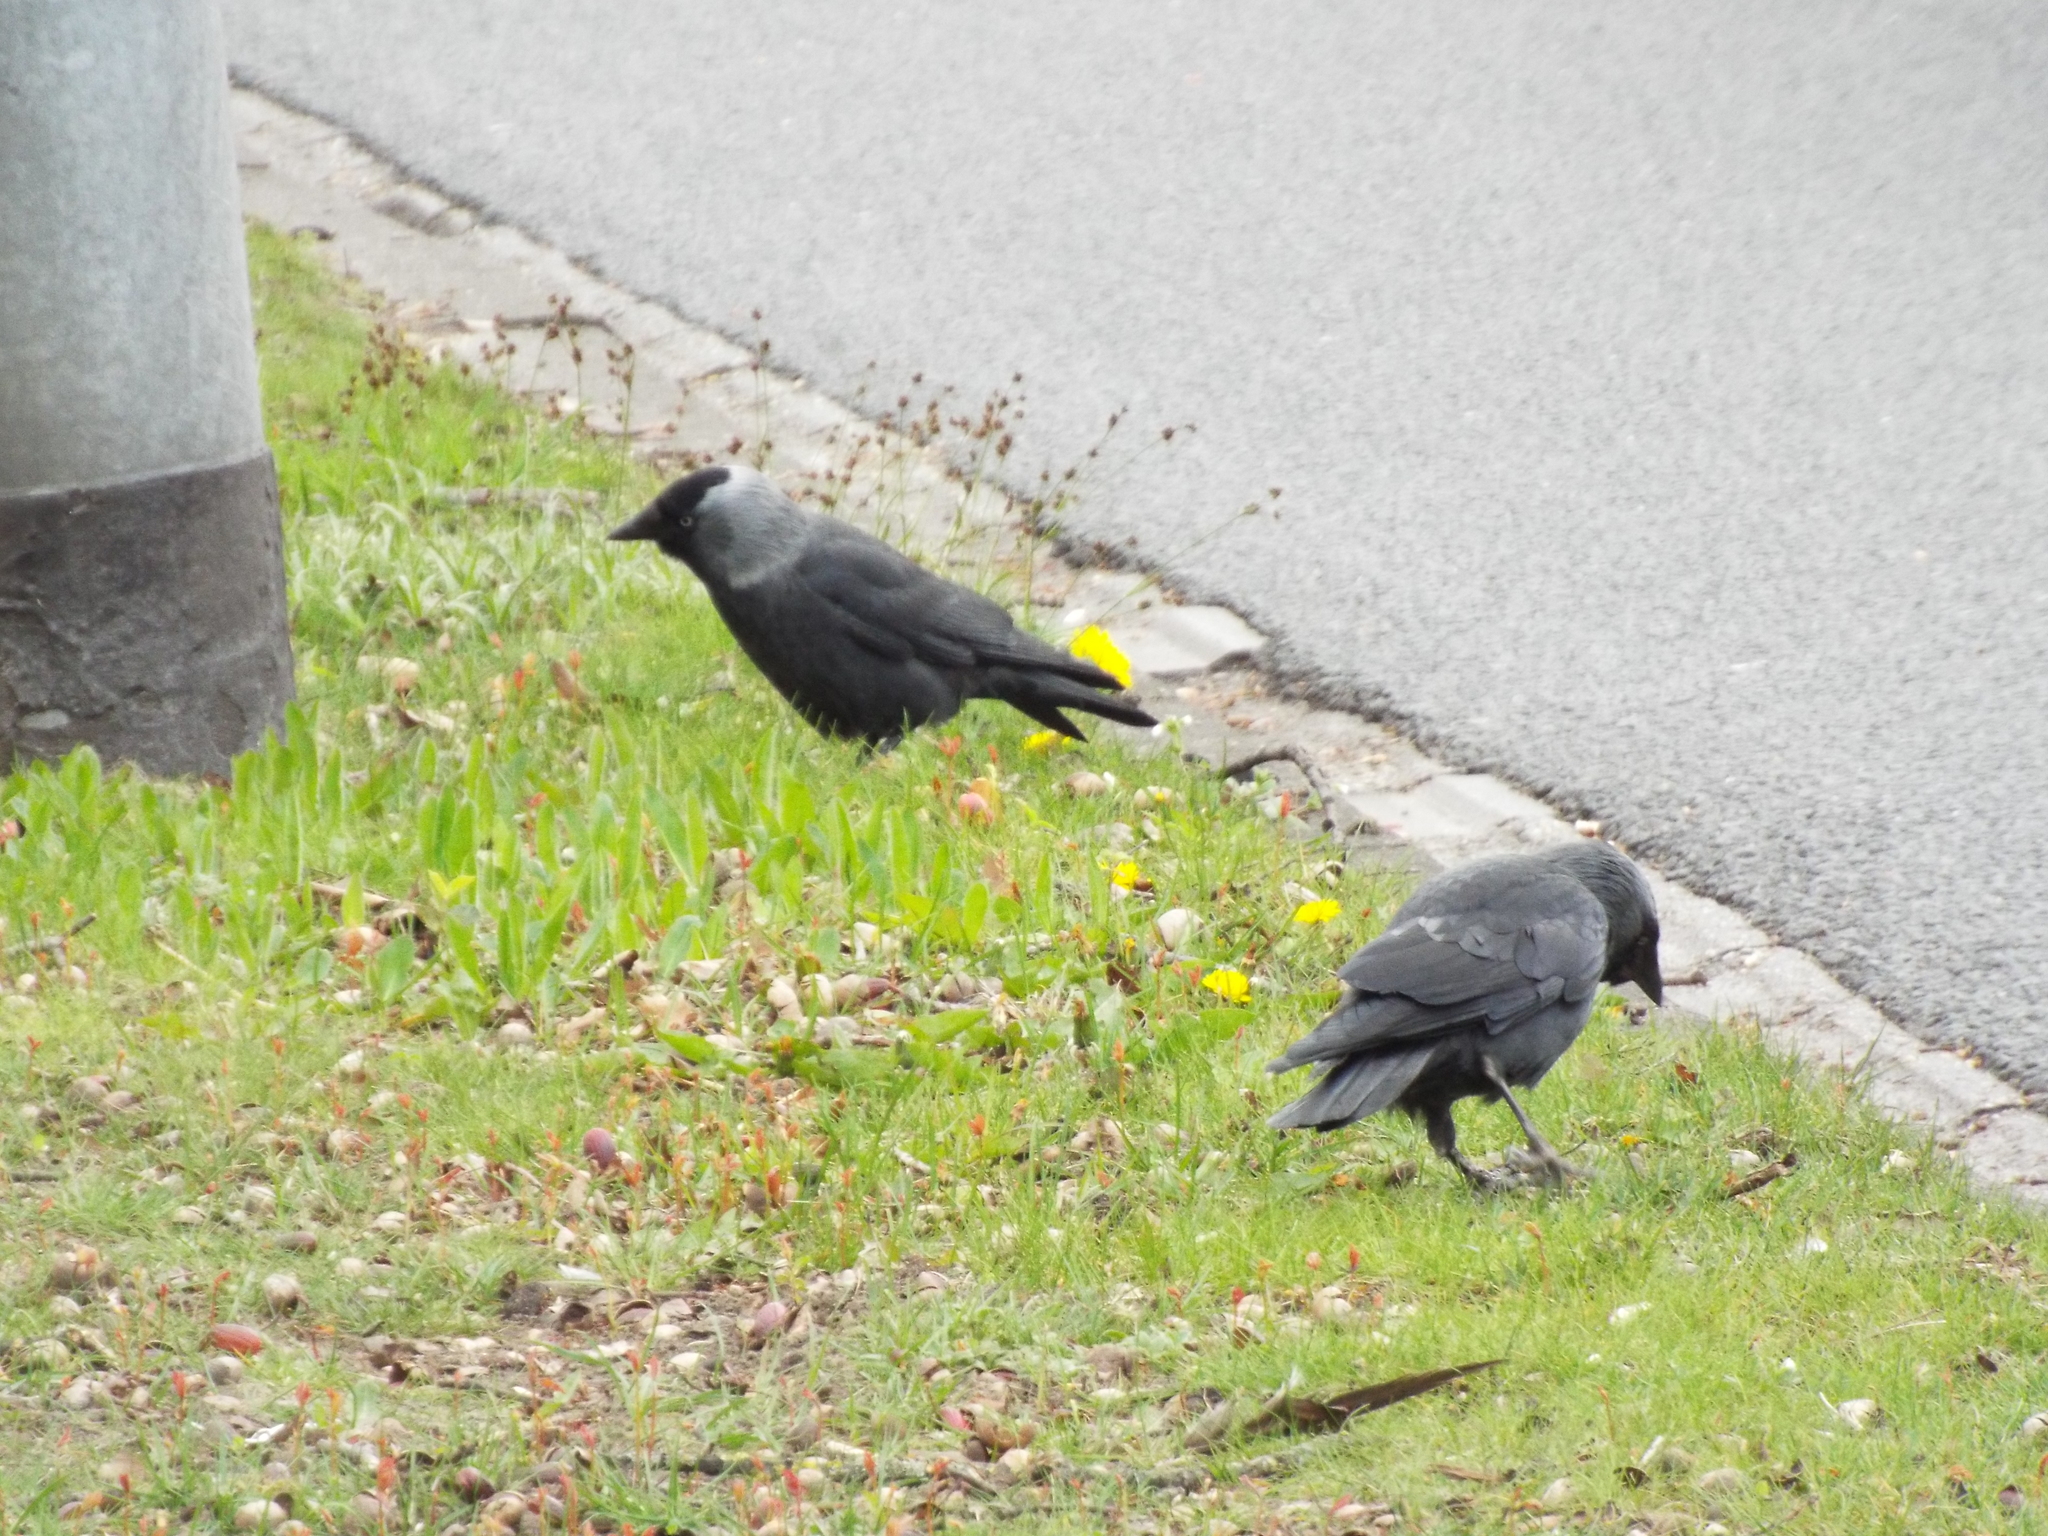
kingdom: Animalia
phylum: Chordata
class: Aves
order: Passeriformes
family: Corvidae
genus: Coloeus
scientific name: Coloeus monedula
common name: Western jackdaw
